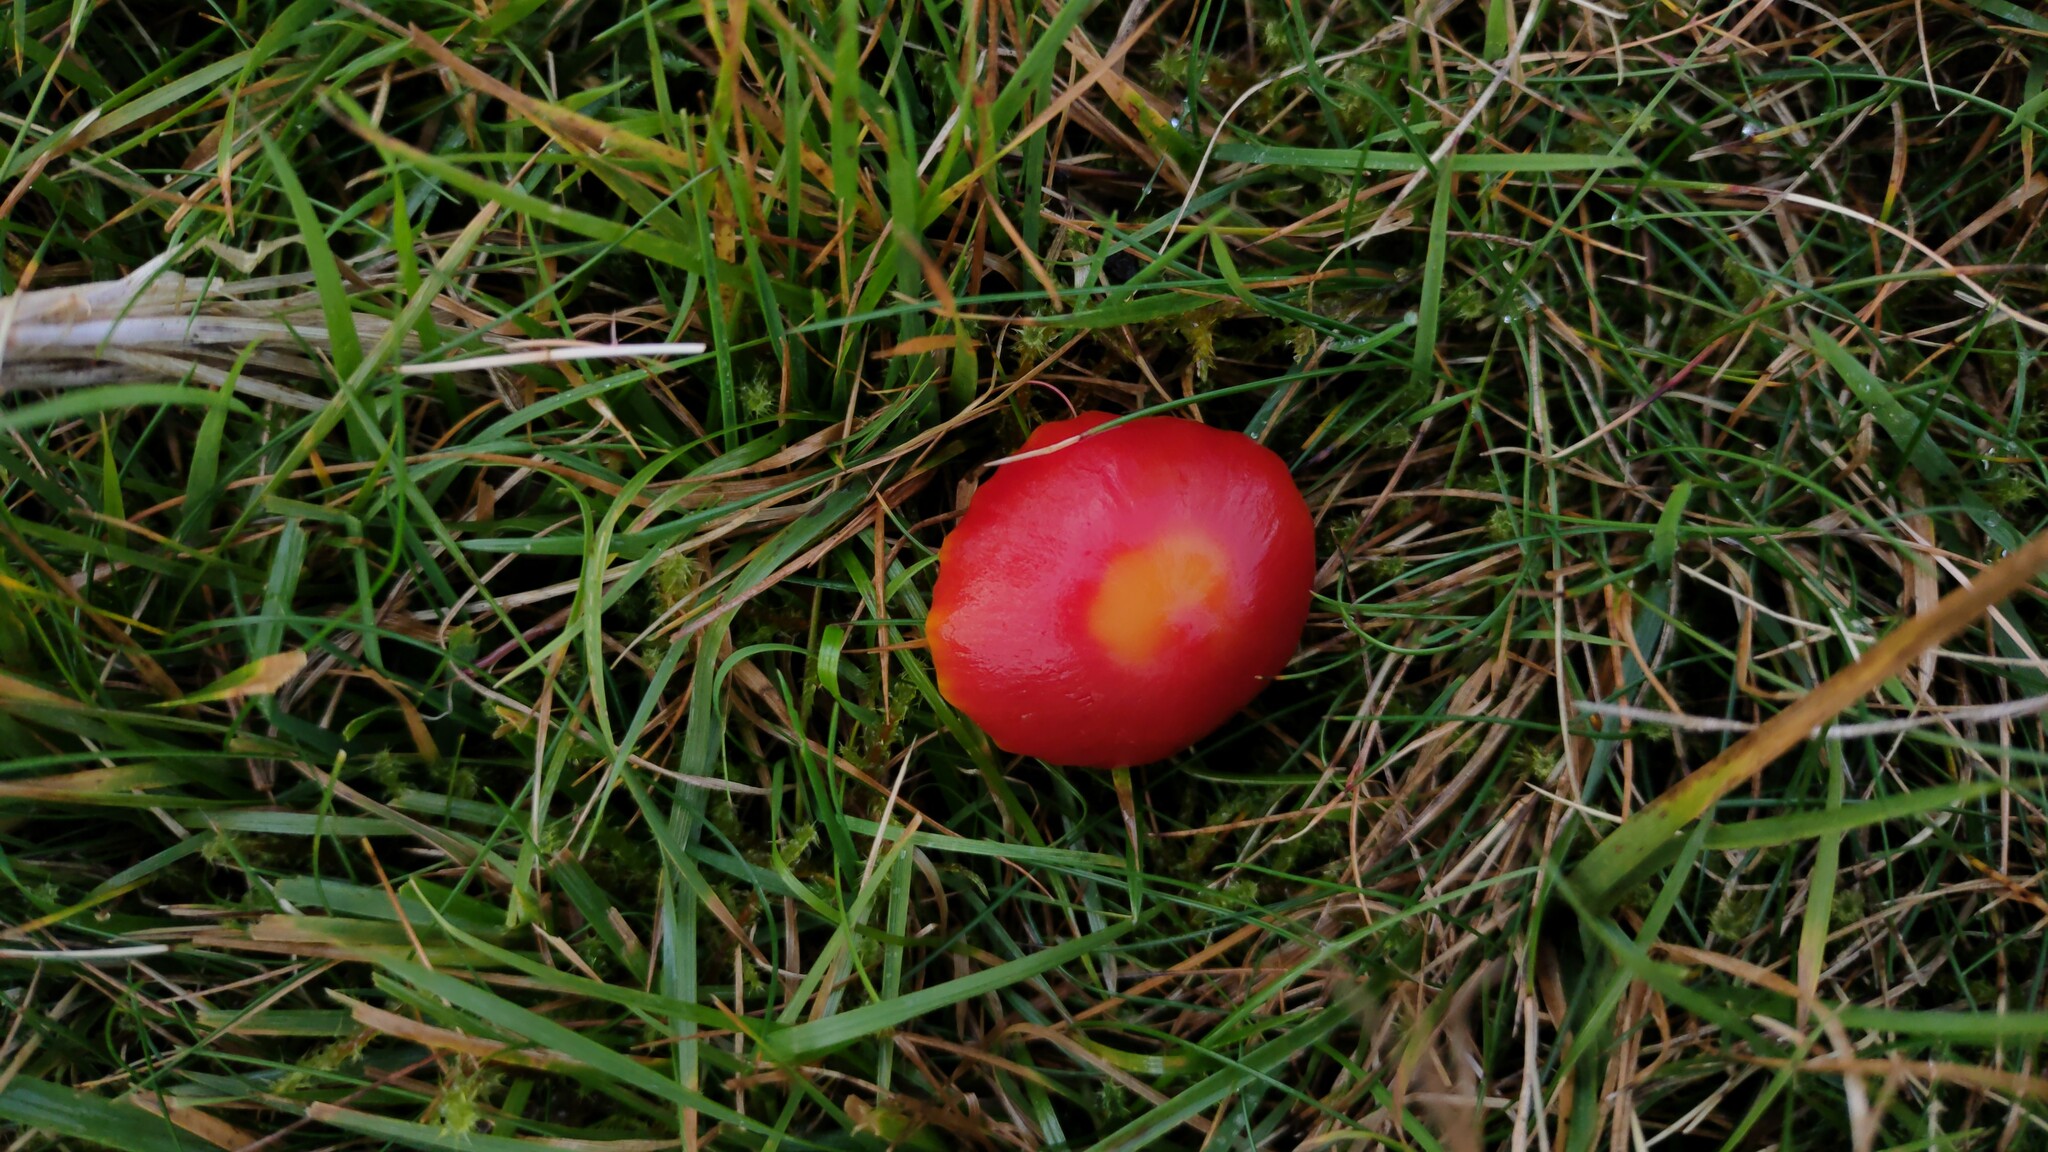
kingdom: Fungi
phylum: Basidiomycota
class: Agaricomycetes
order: Agaricales
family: Hygrophoraceae
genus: Hygrocybe
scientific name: Hygrocybe coccinea
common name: Scarlet hood
